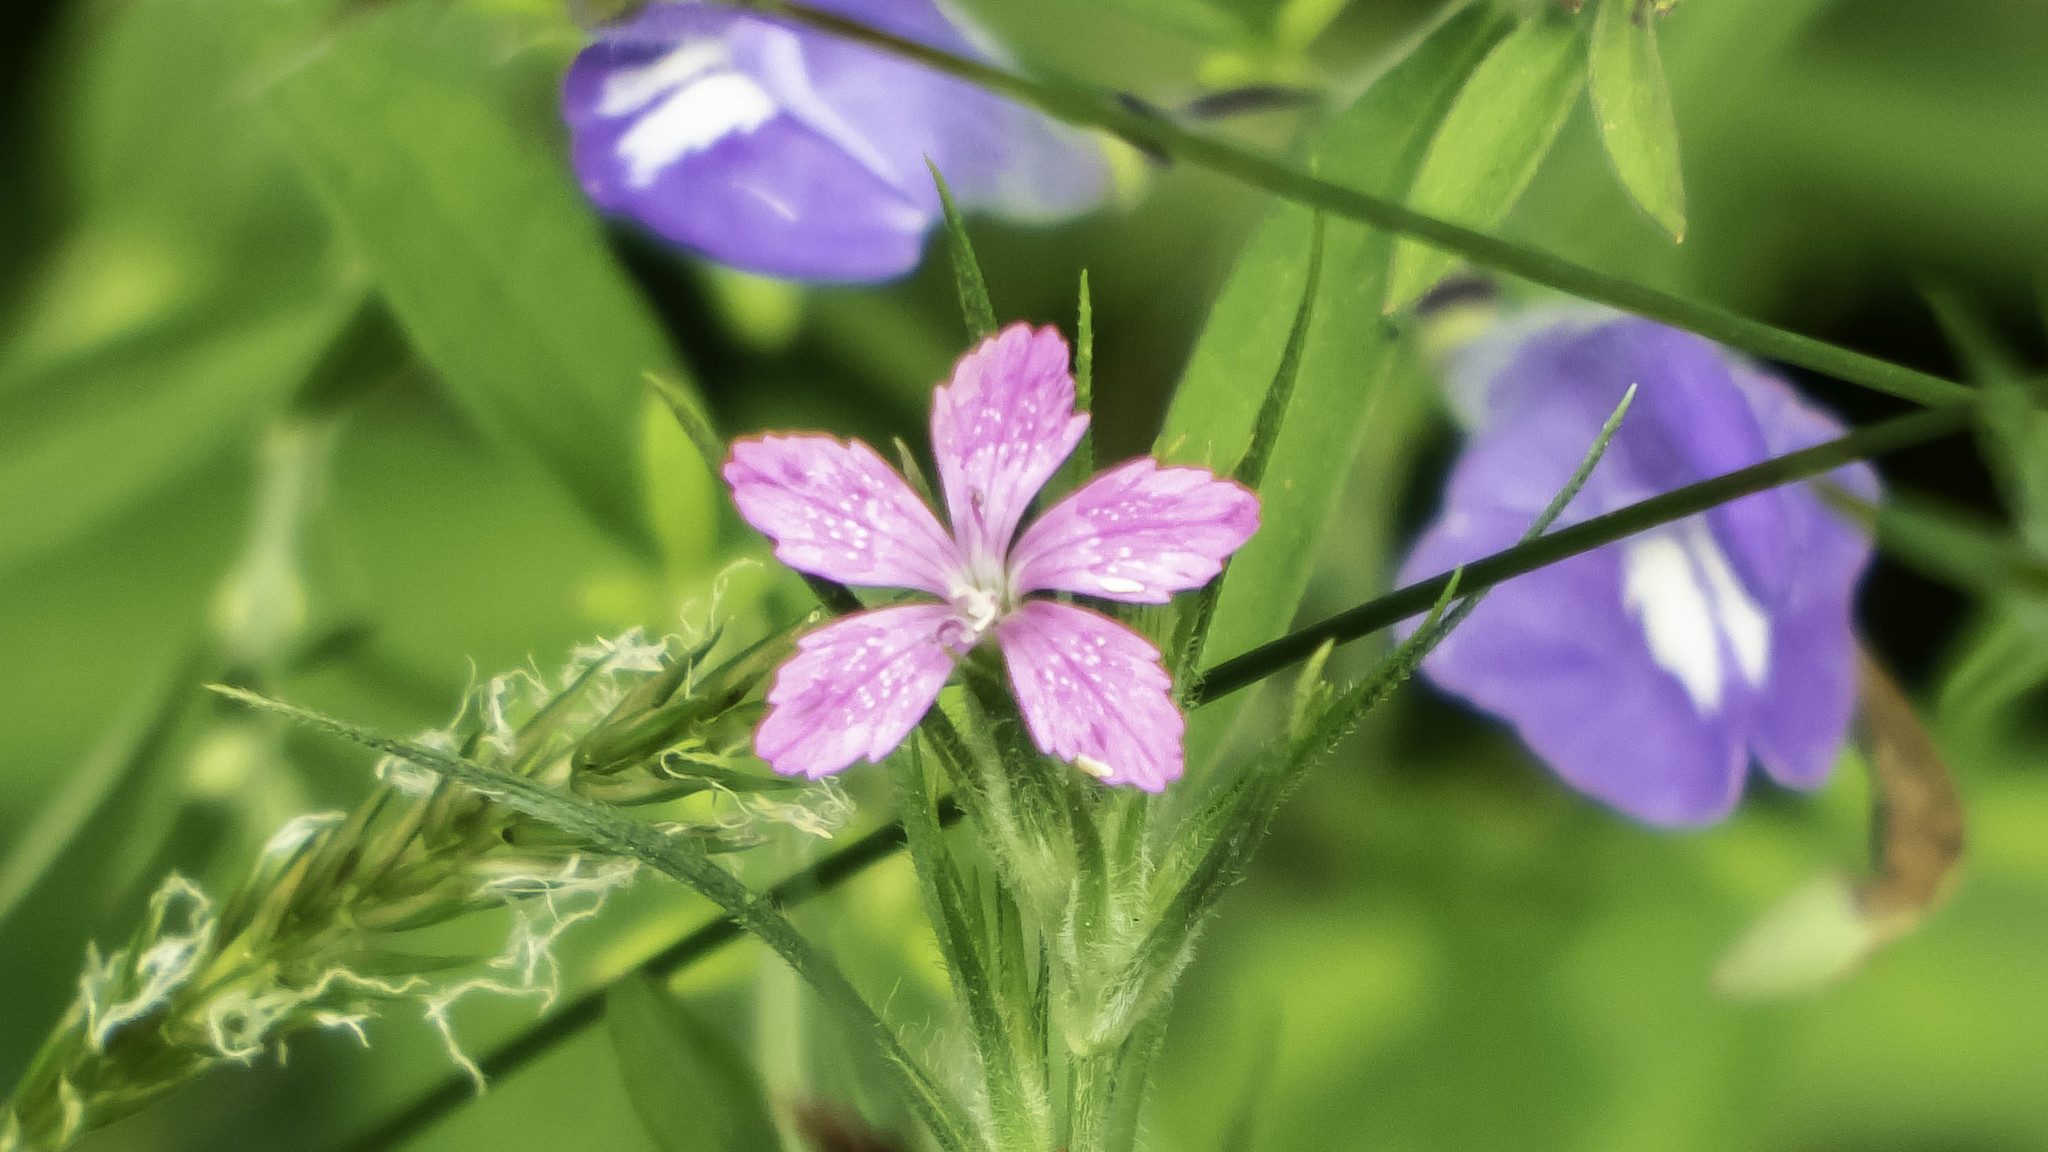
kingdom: Plantae
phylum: Tracheophyta
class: Magnoliopsida
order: Caryophyllales
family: Caryophyllaceae
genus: Dianthus
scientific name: Dianthus armeria
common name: Deptford pink
